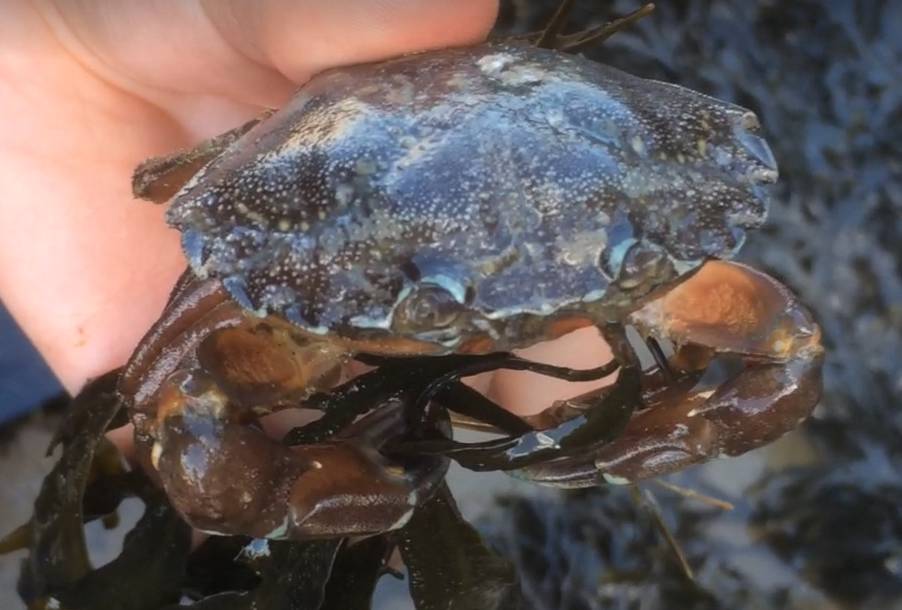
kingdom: Animalia
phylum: Arthropoda
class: Malacostraca
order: Decapoda
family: Carcinidae
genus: Carcinus
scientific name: Carcinus maenas
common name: European green crab
